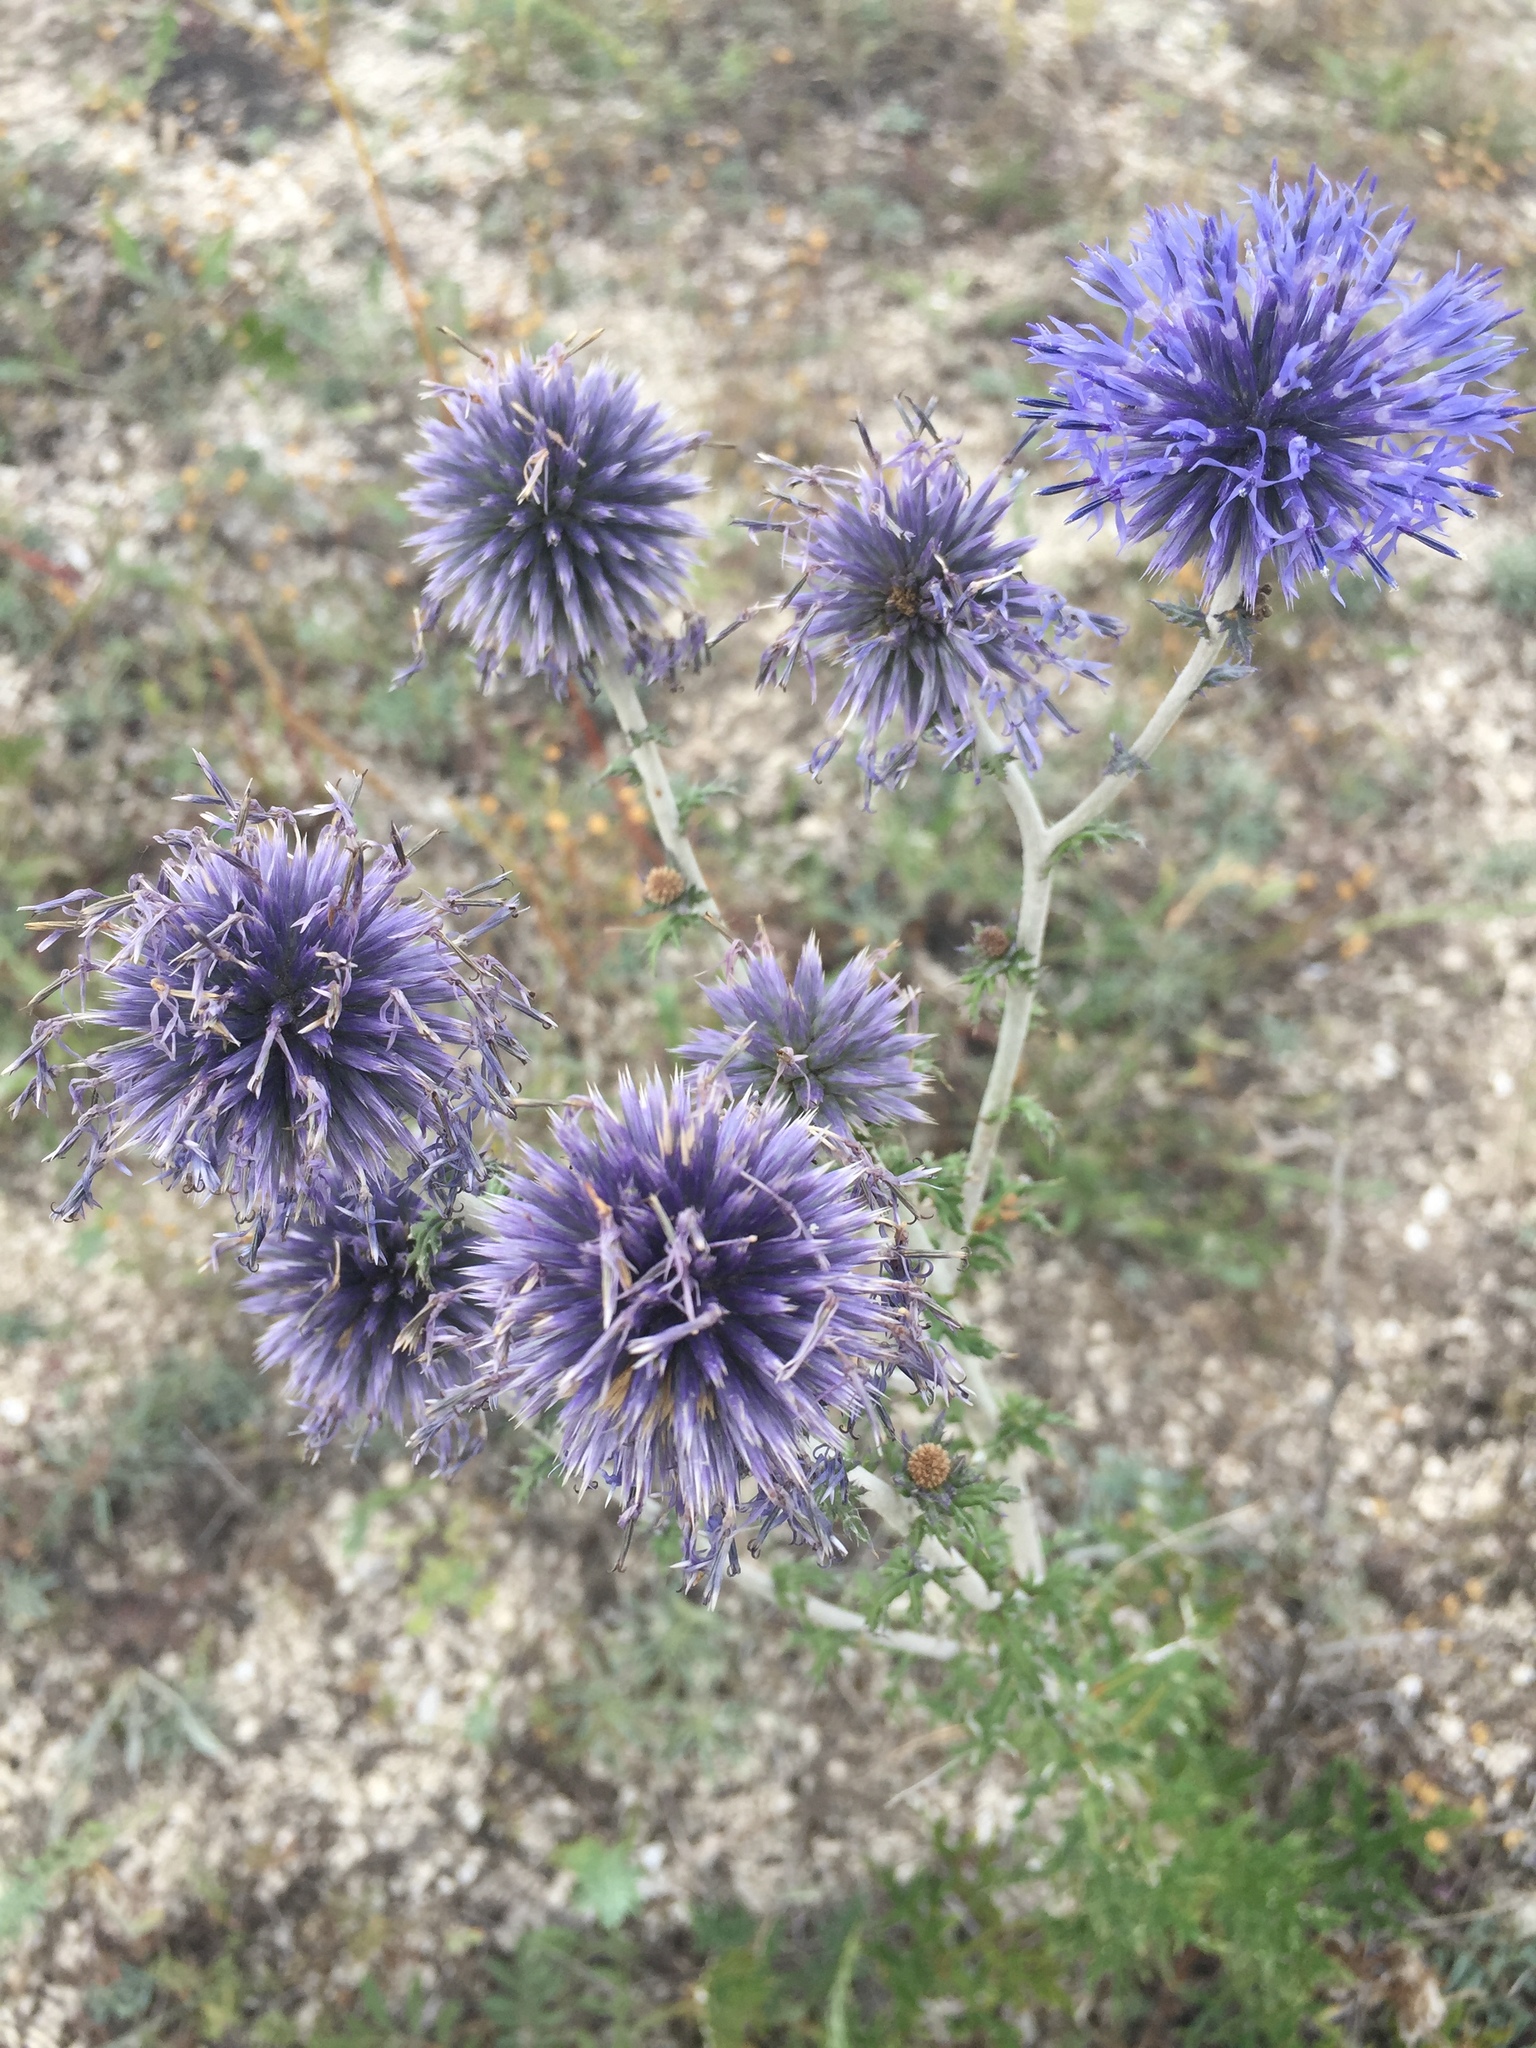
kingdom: Plantae
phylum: Tracheophyta
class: Magnoliopsida
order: Asterales
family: Asteraceae
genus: Echinops
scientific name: Echinops ritro
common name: Globe thistle
